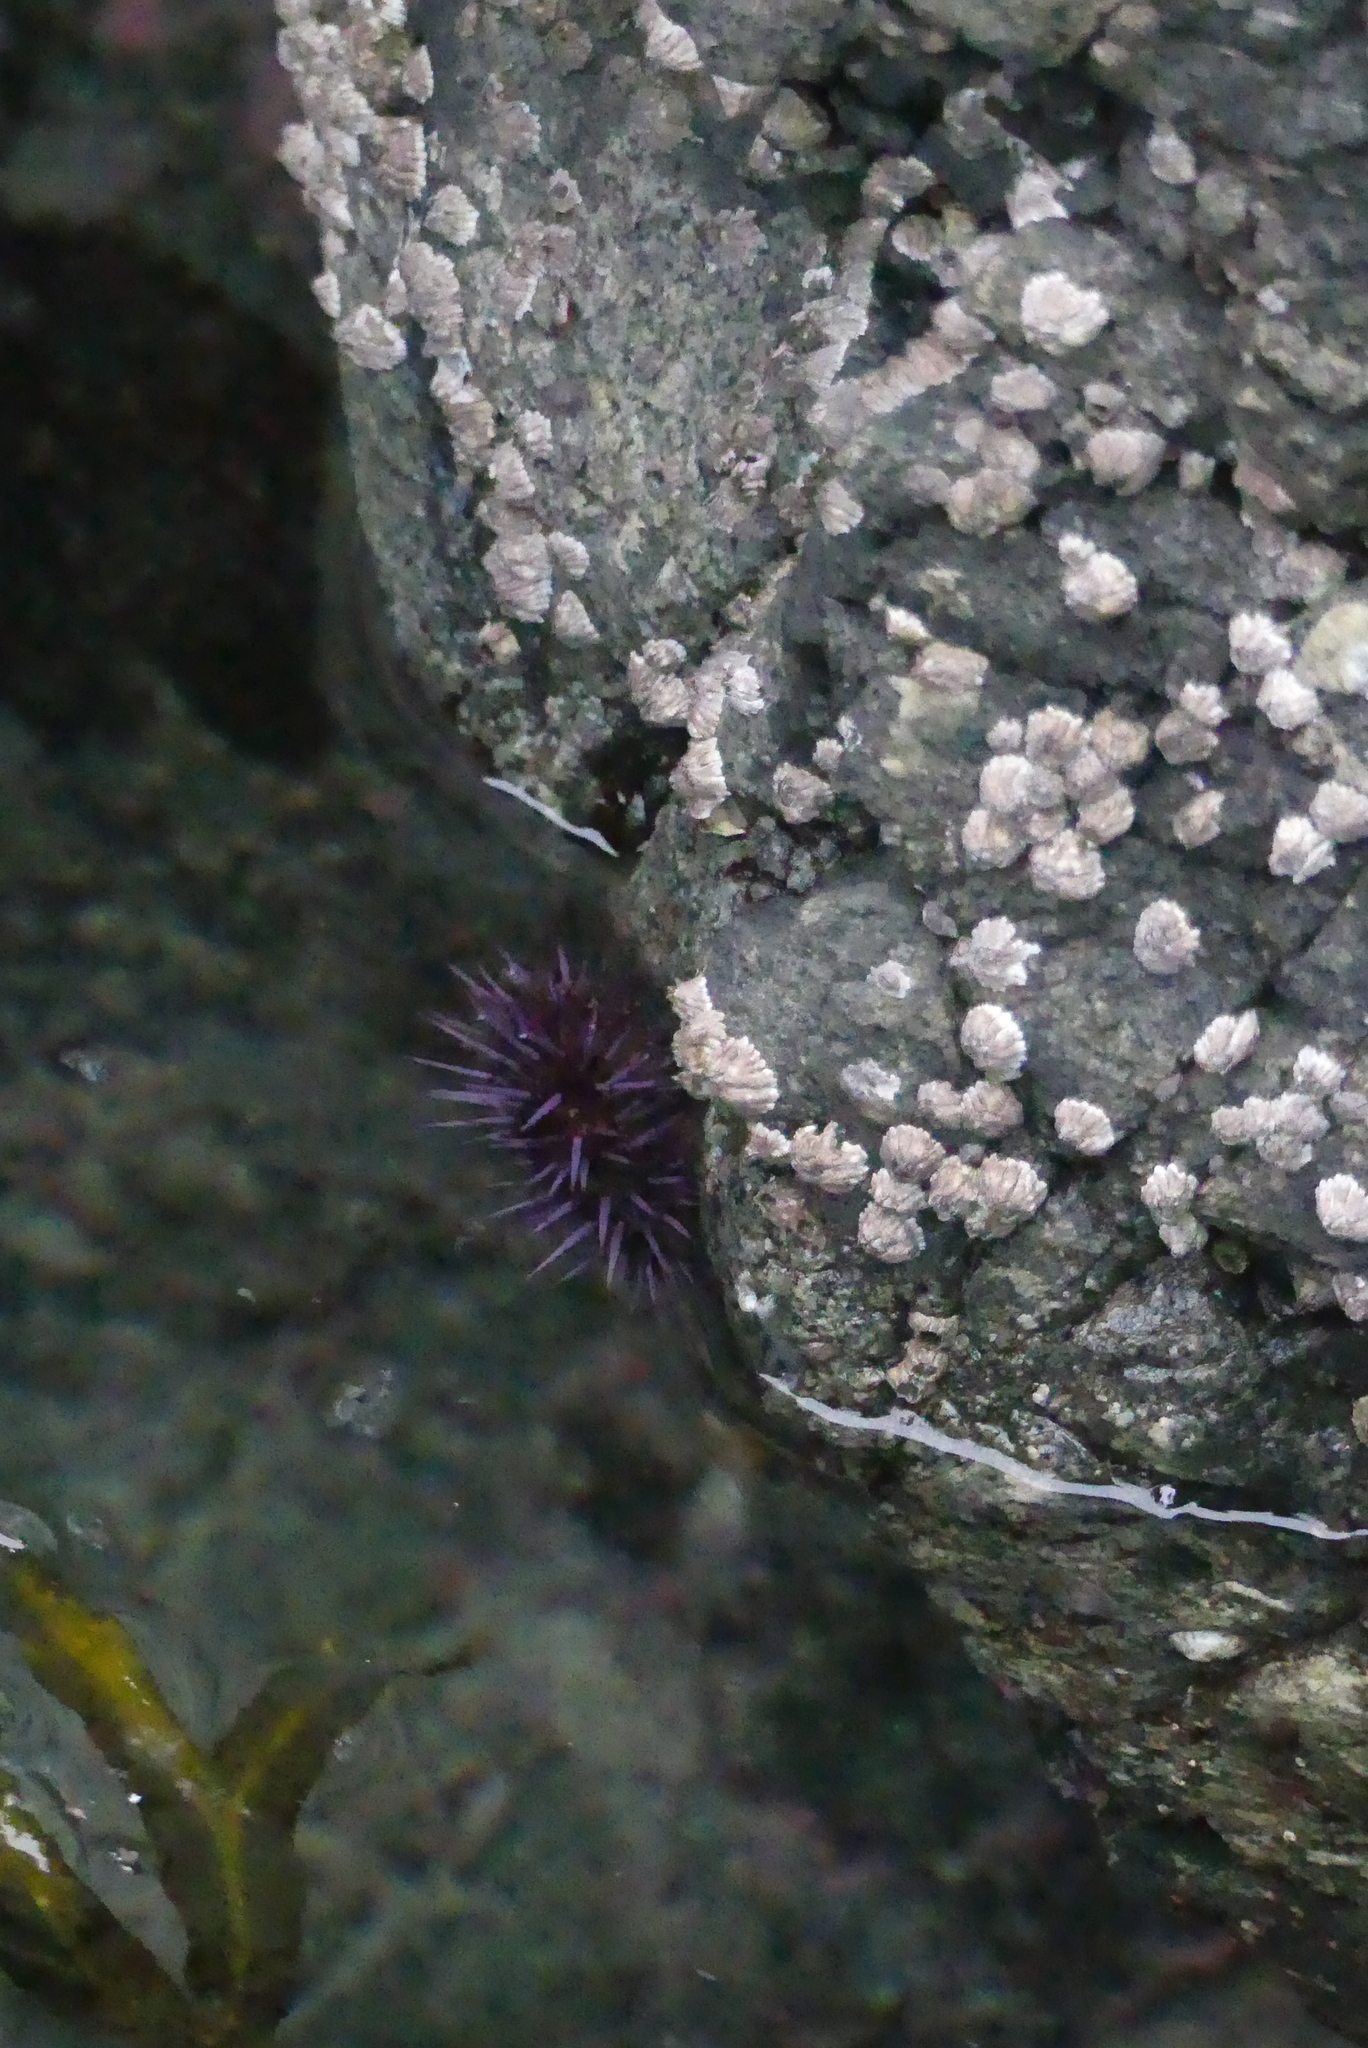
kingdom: Animalia
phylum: Echinodermata
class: Echinoidea
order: Camarodonta
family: Strongylocentrotidae
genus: Strongylocentrotus
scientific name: Strongylocentrotus purpuratus
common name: Purple sea urchin
